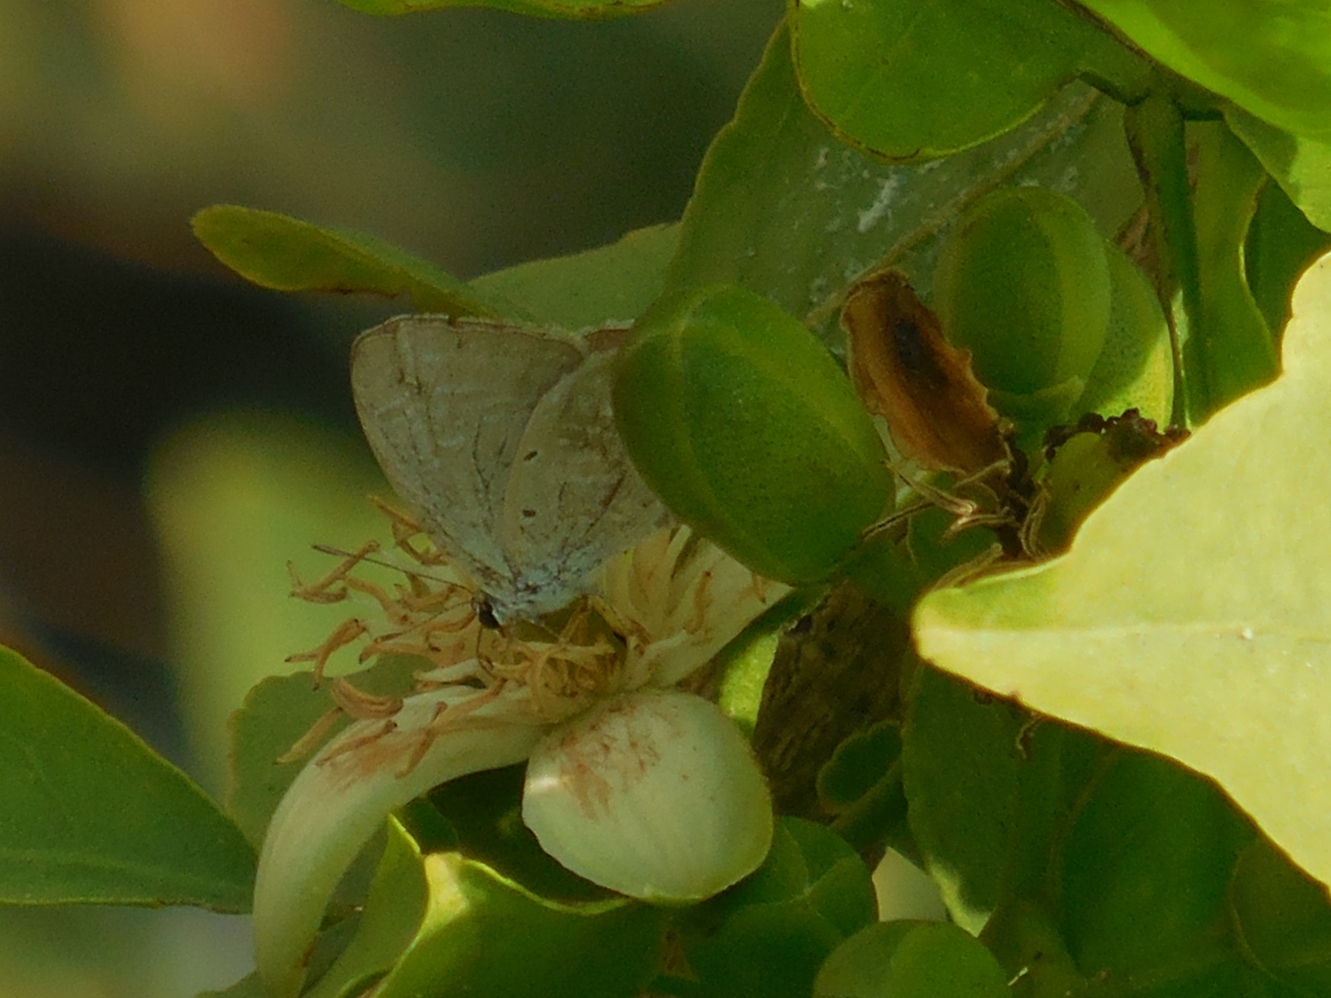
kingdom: Animalia
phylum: Arthropoda
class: Insecta
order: Lepidoptera
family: Lycaenidae
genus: Catochrysops
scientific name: Catochrysops strabo
